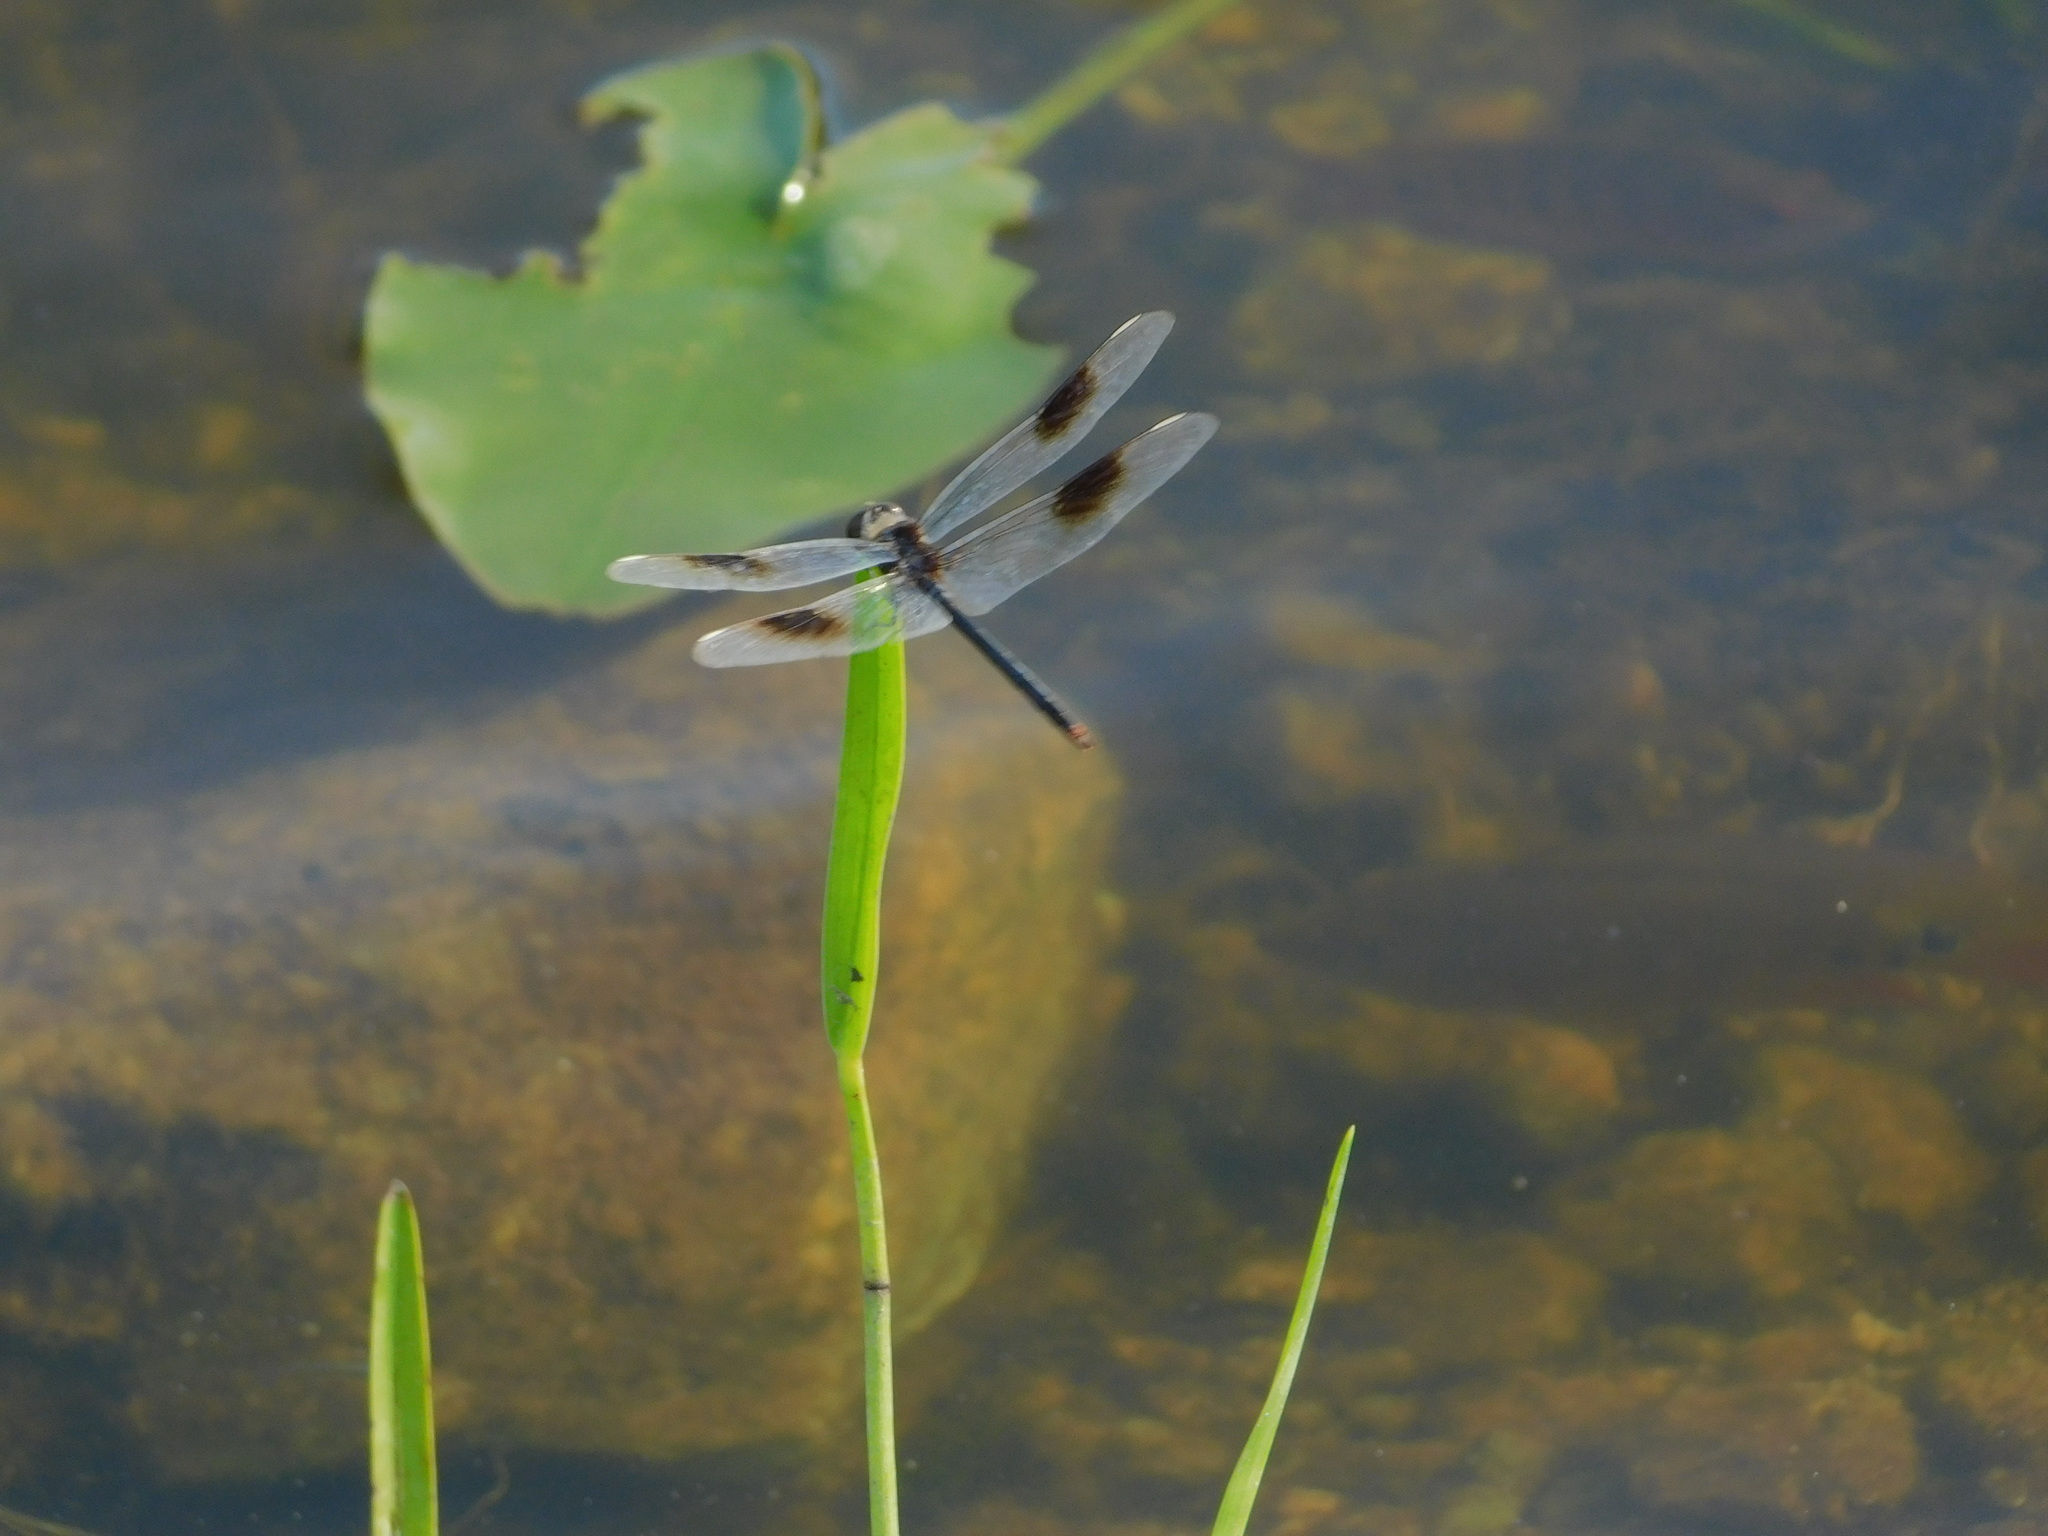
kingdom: Animalia
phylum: Arthropoda
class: Insecta
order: Odonata
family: Libellulidae
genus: Brachymesia
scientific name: Brachymesia gravida
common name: Four-spotted pennant
